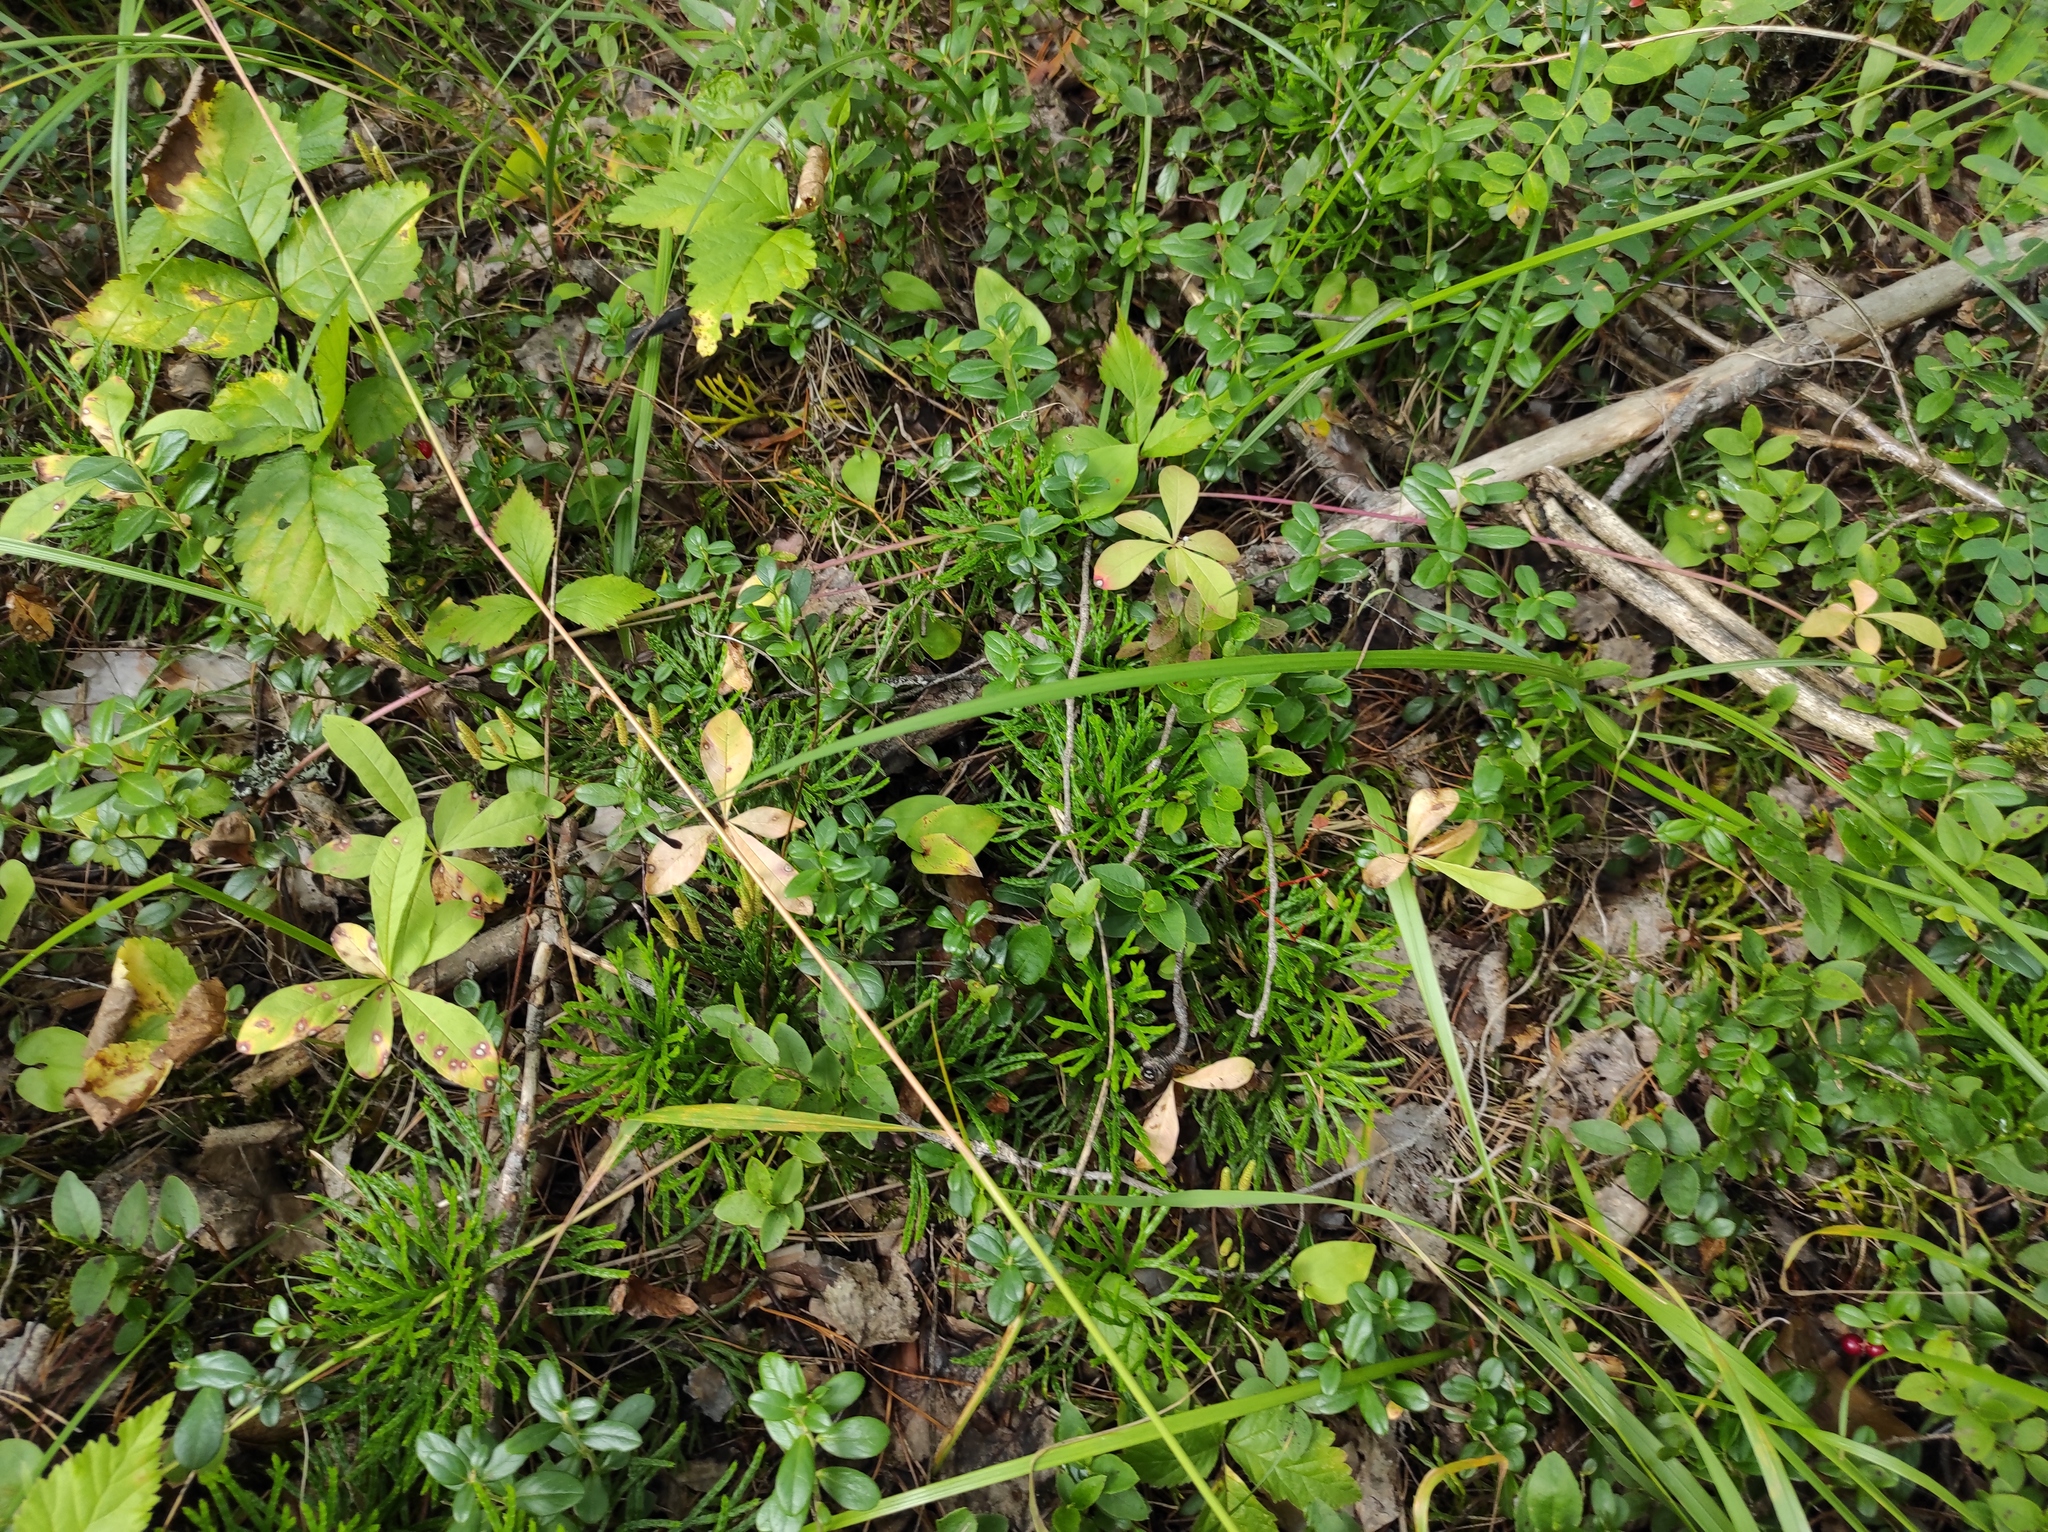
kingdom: Plantae
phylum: Tracheophyta
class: Lycopodiopsida
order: Lycopodiales
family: Lycopodiaceae
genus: Diphasiastrum
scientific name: Diphasiastrum complanatum
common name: Northern running-pine
